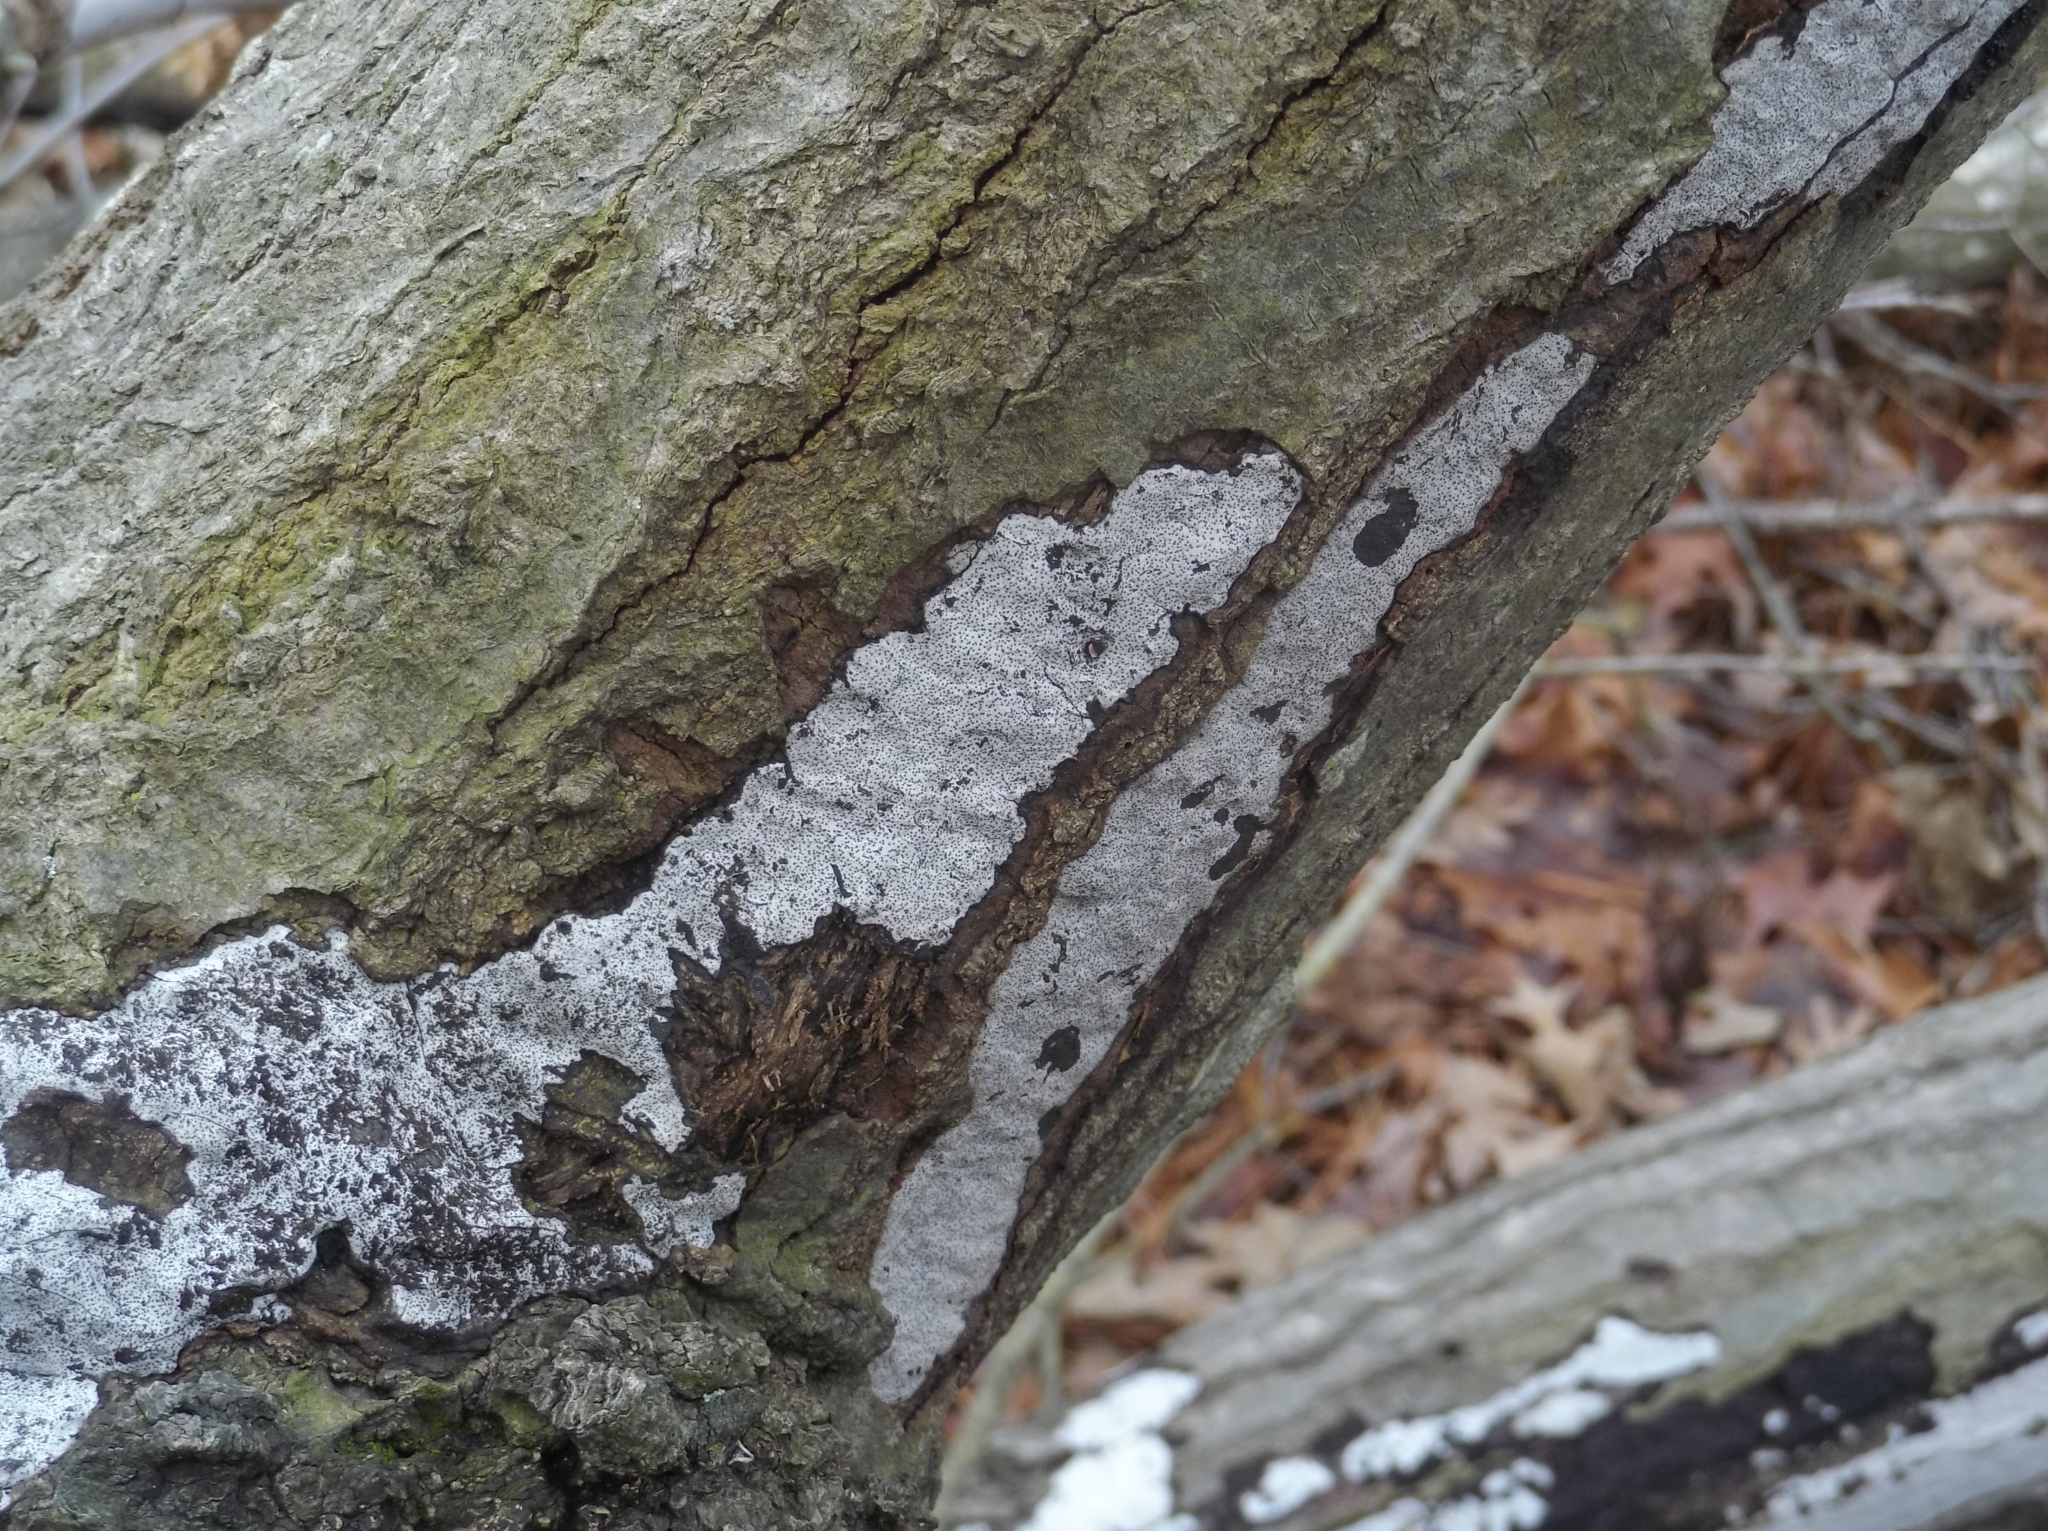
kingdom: Fungi
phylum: Ascomycota
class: Sordariomycetes
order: Xylariales
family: Graphostromataceae
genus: Biscogniauxia
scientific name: Biscogniauxia atropunctata
